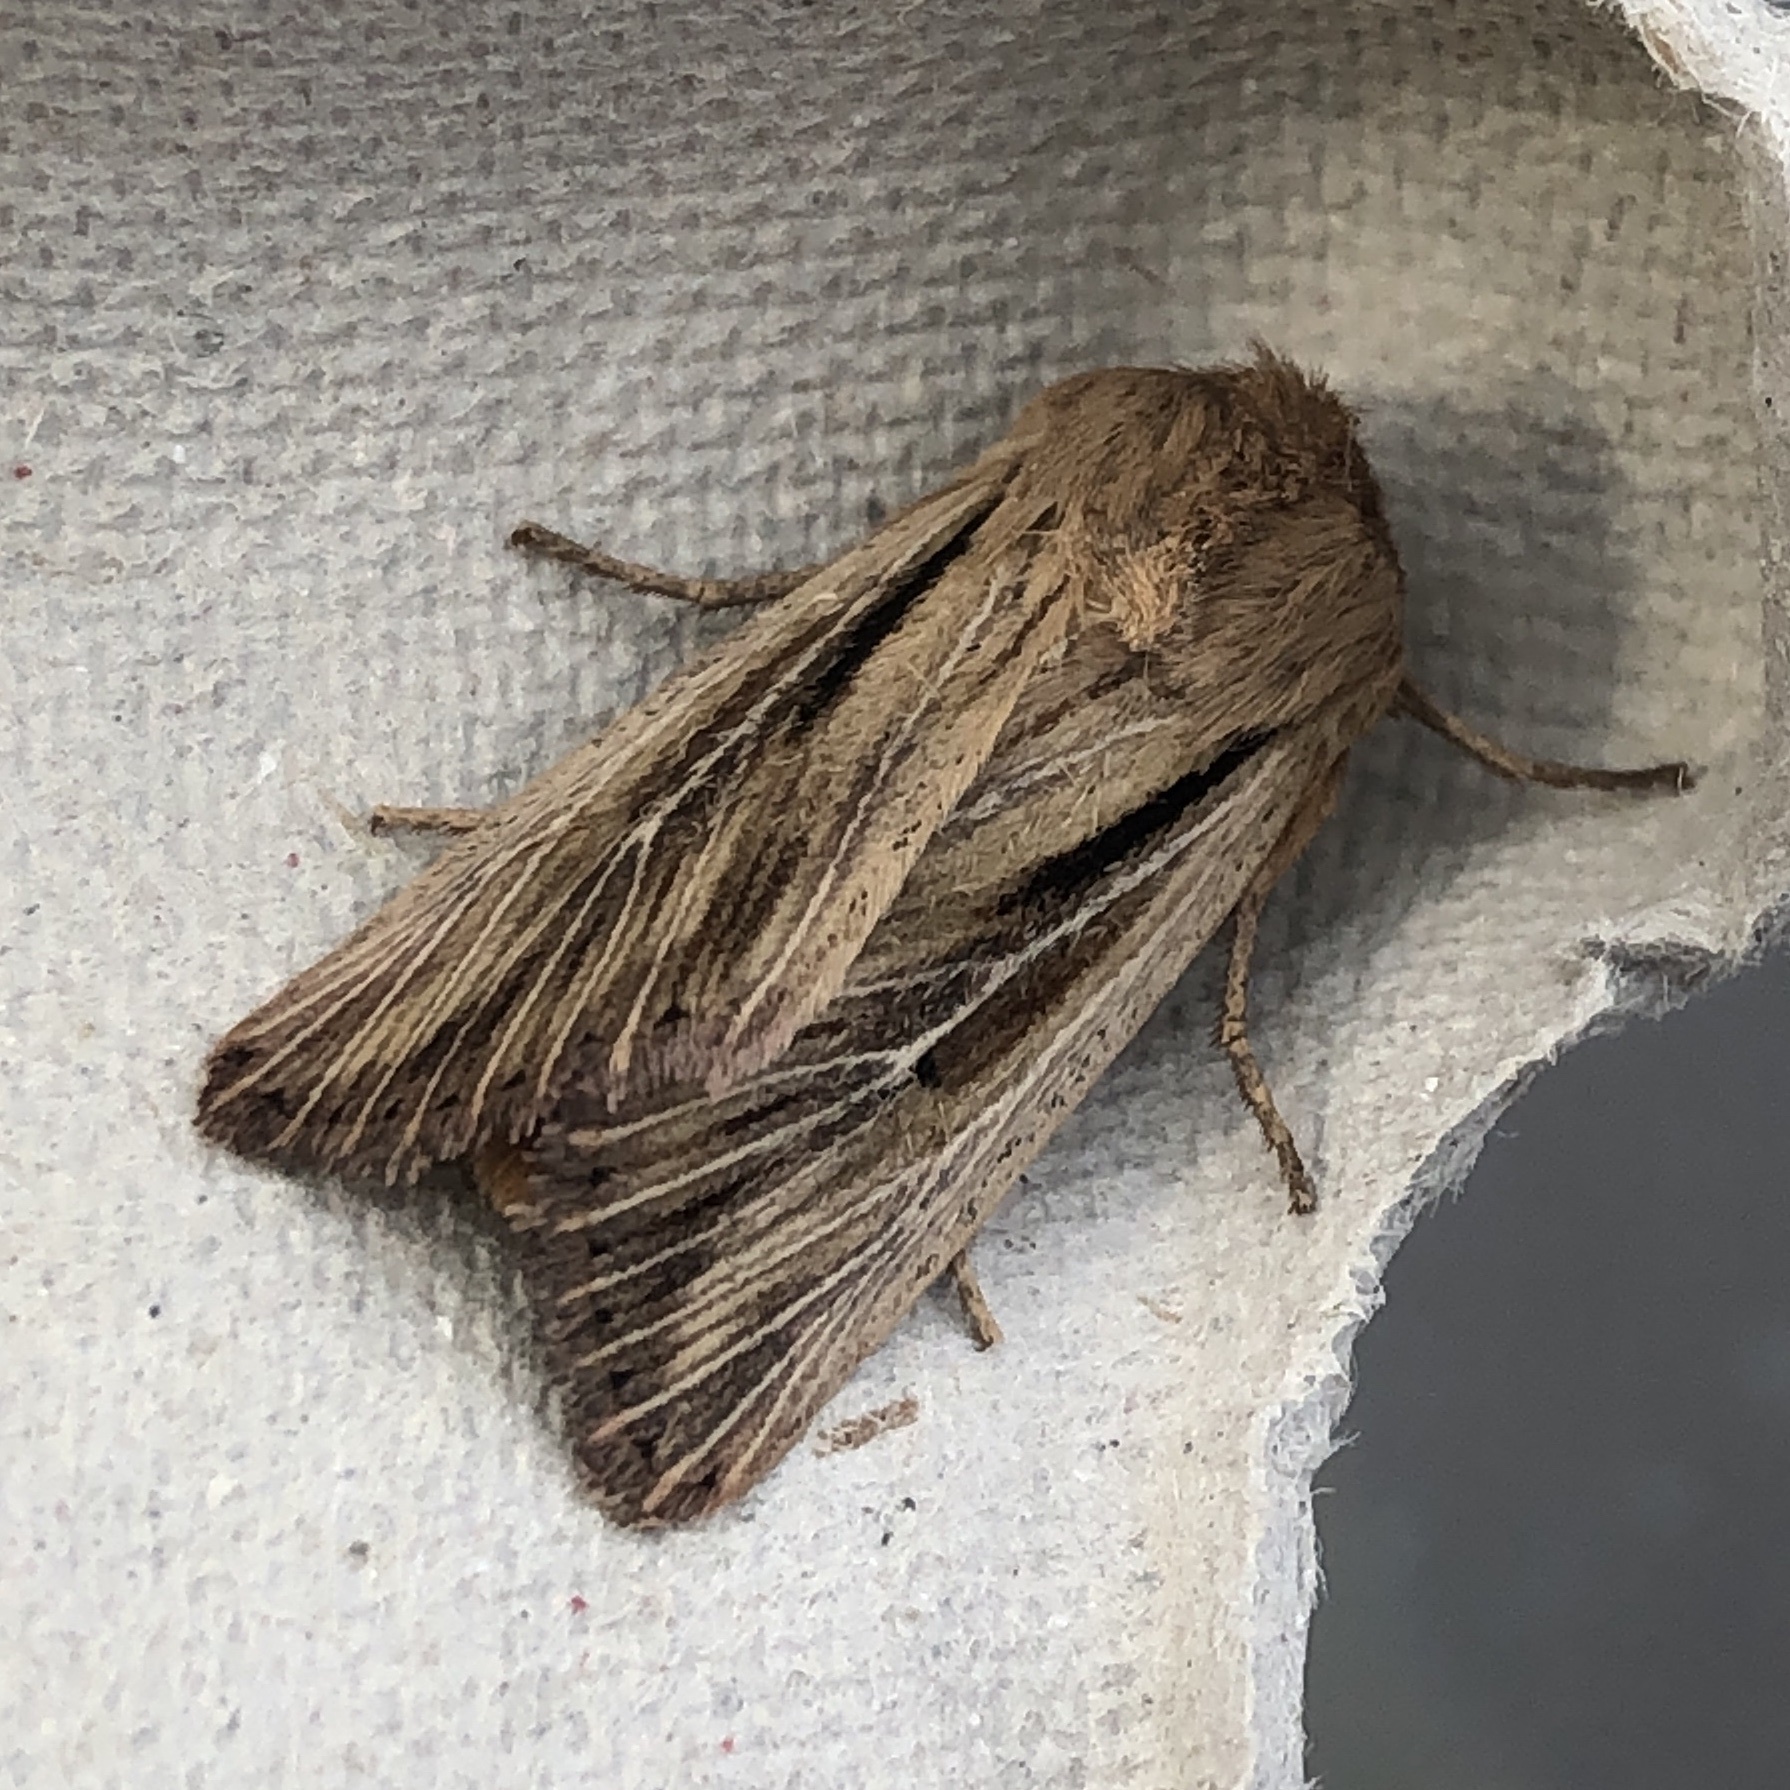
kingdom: Animalia
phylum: Arthropoda
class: Insecta
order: Lepidoptera
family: Noctuidae
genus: Leucania
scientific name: Leucania comma
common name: Shoulder-striped wainscot
